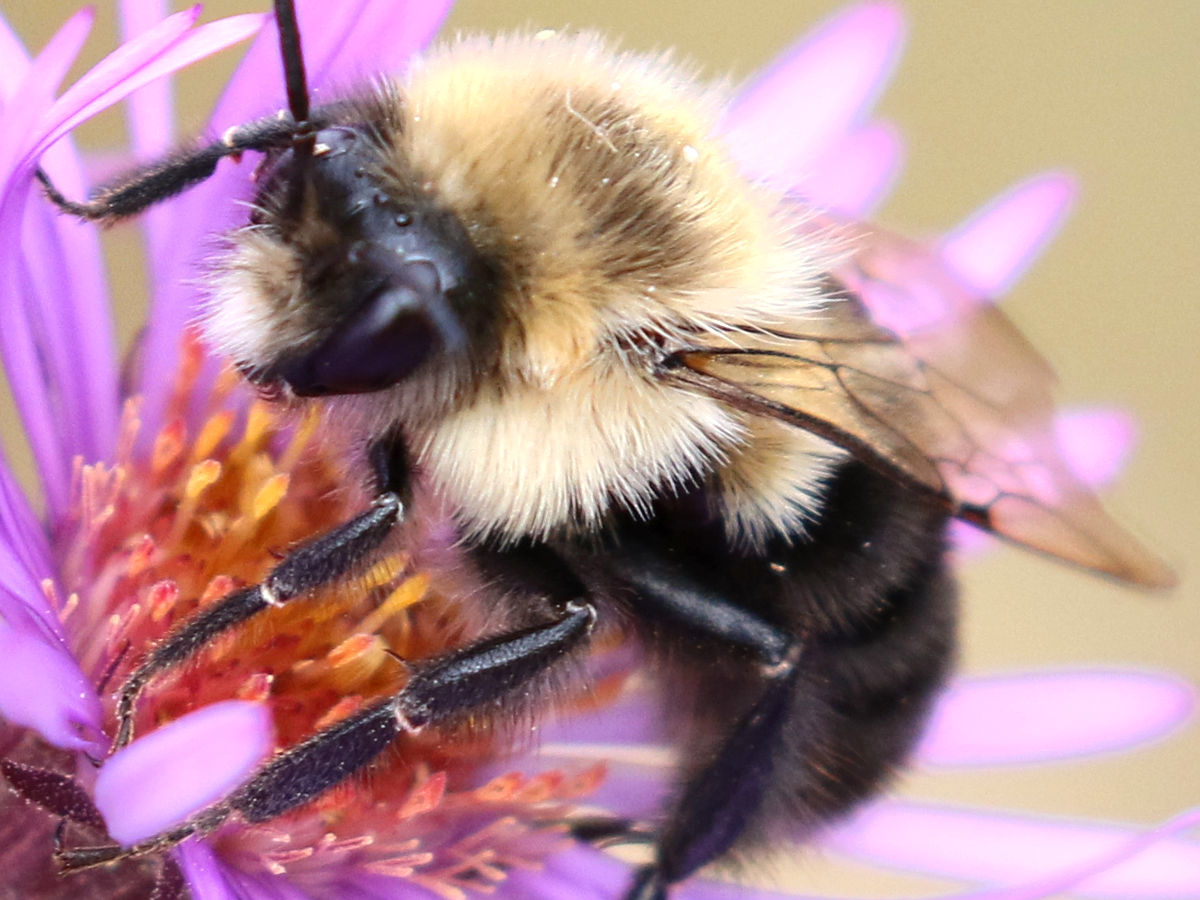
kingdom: Animalia
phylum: Arthropoda
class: Insecta
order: Hymenoptera
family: Apidae
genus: Bombus
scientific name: Bombus impatiens
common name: Common eastern bumble bee
